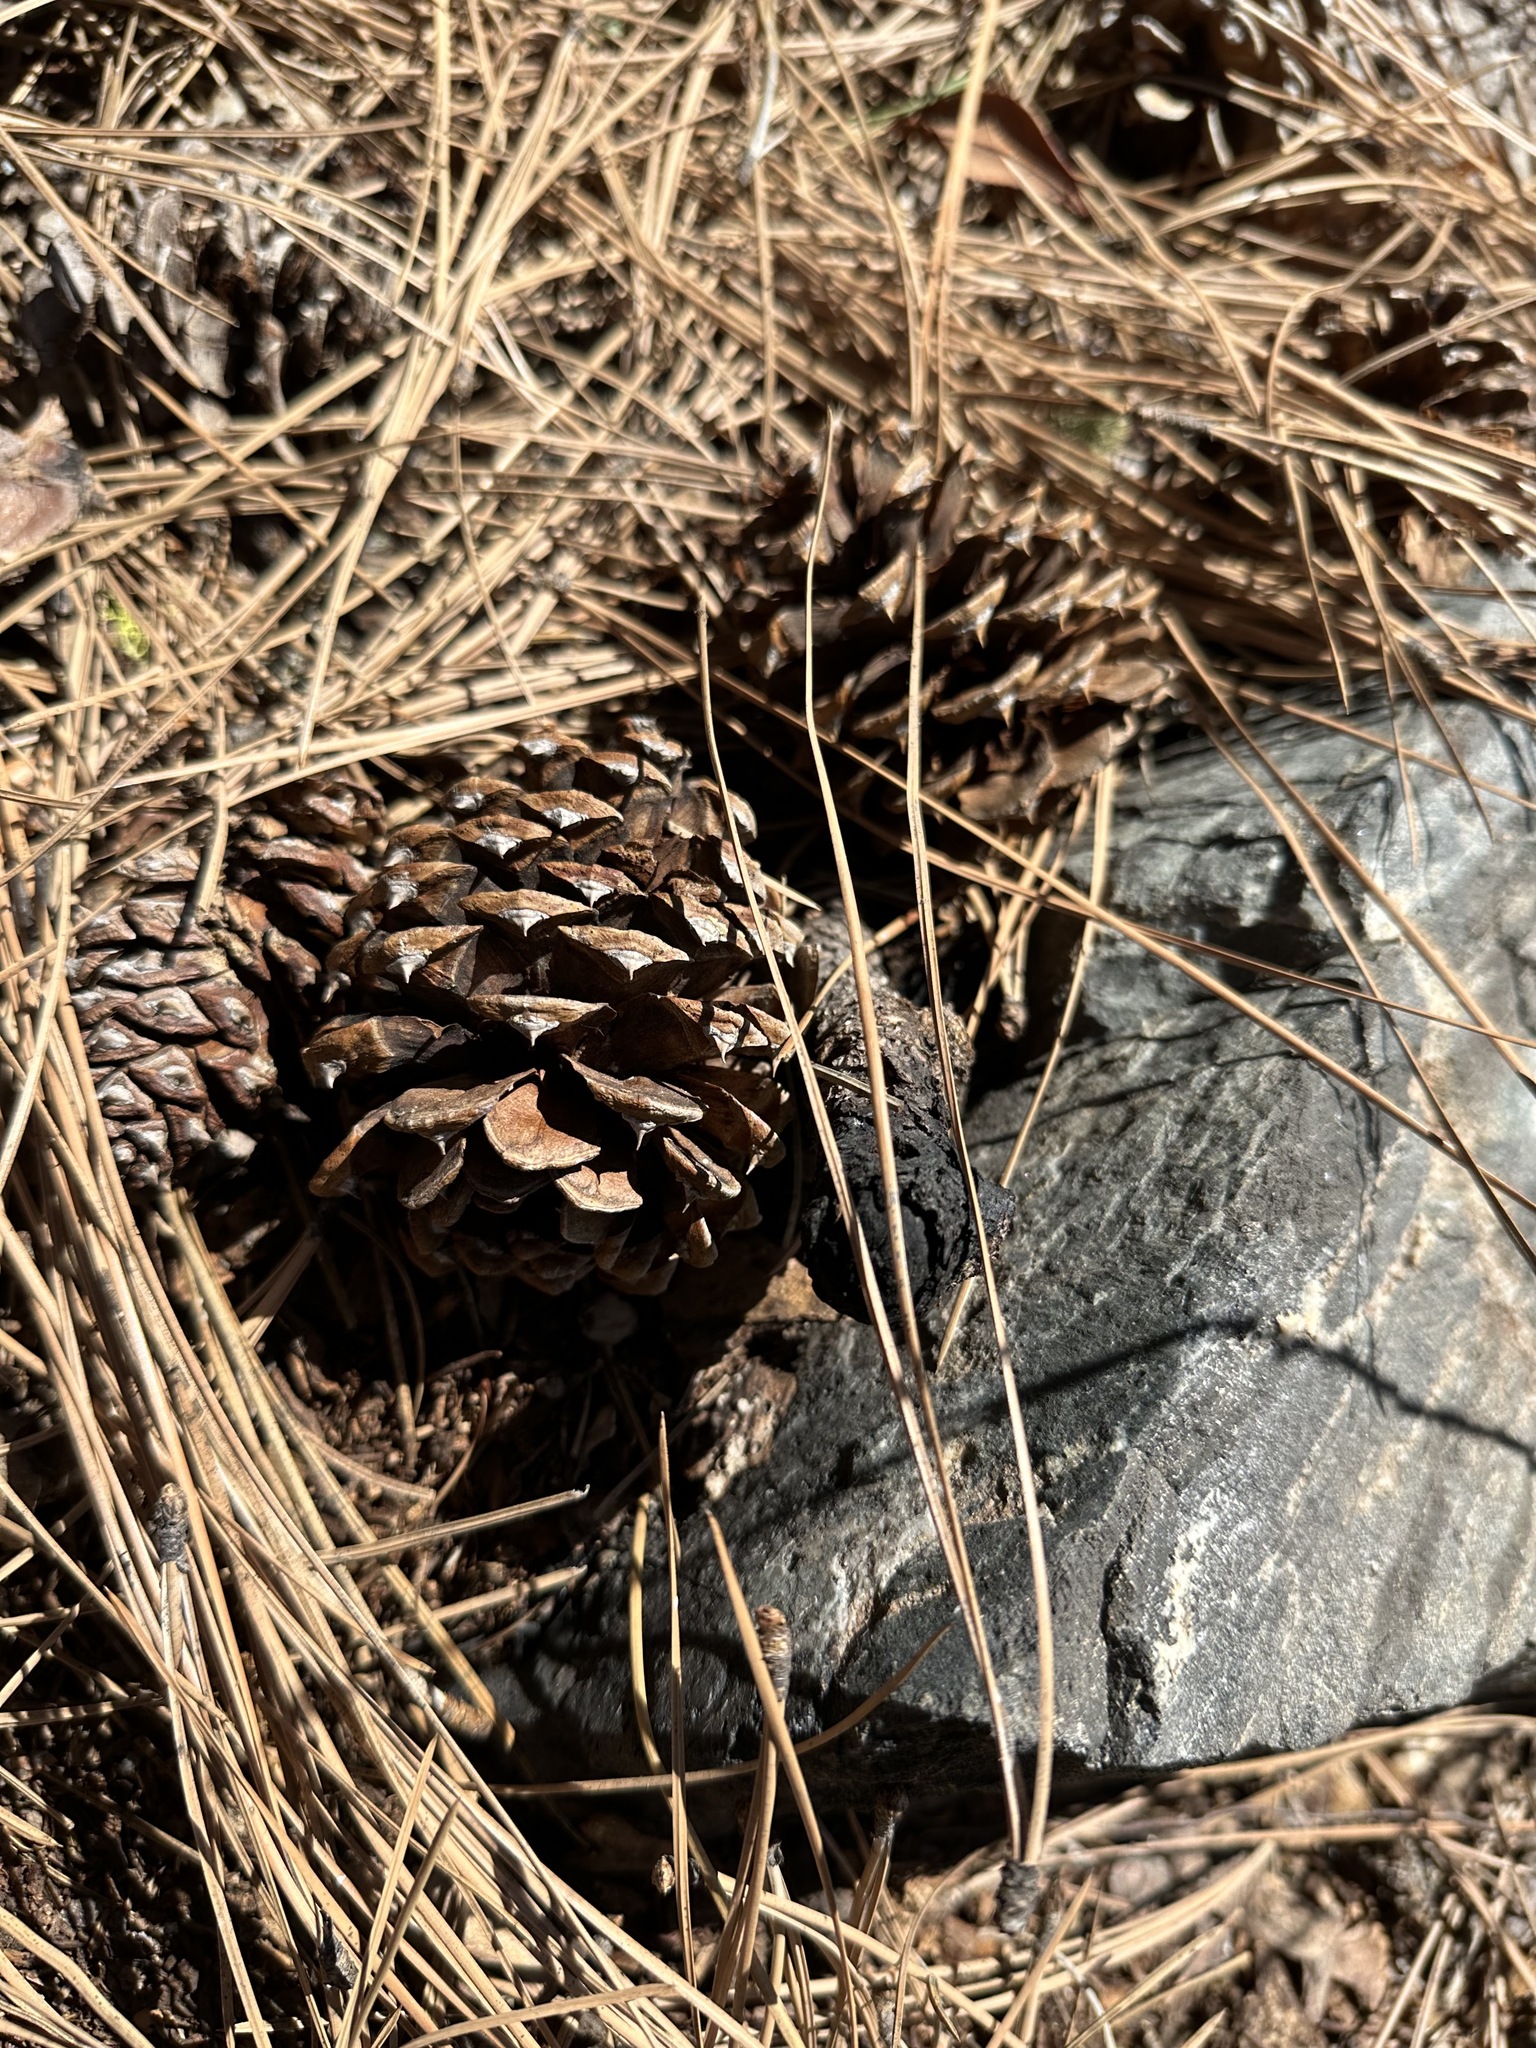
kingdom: Plantae
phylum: Tracheophyta
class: Pinopsida
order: Pinales
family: Pinaceae
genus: Pinus
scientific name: Pinus ponderosa
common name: Western yellow-pine
